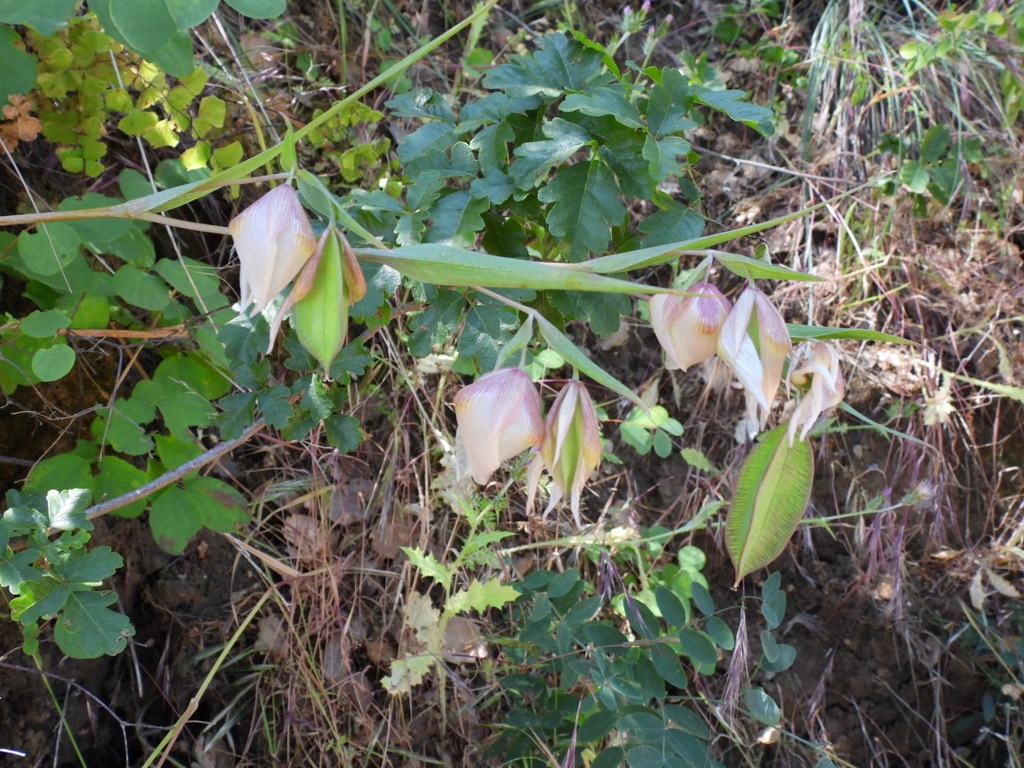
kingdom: Plantae
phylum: Tracheophyta
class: Liliopsida
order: Liliales
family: Liliaceae
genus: Calochortus
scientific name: Calochortus albus
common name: Fairy-lantern
